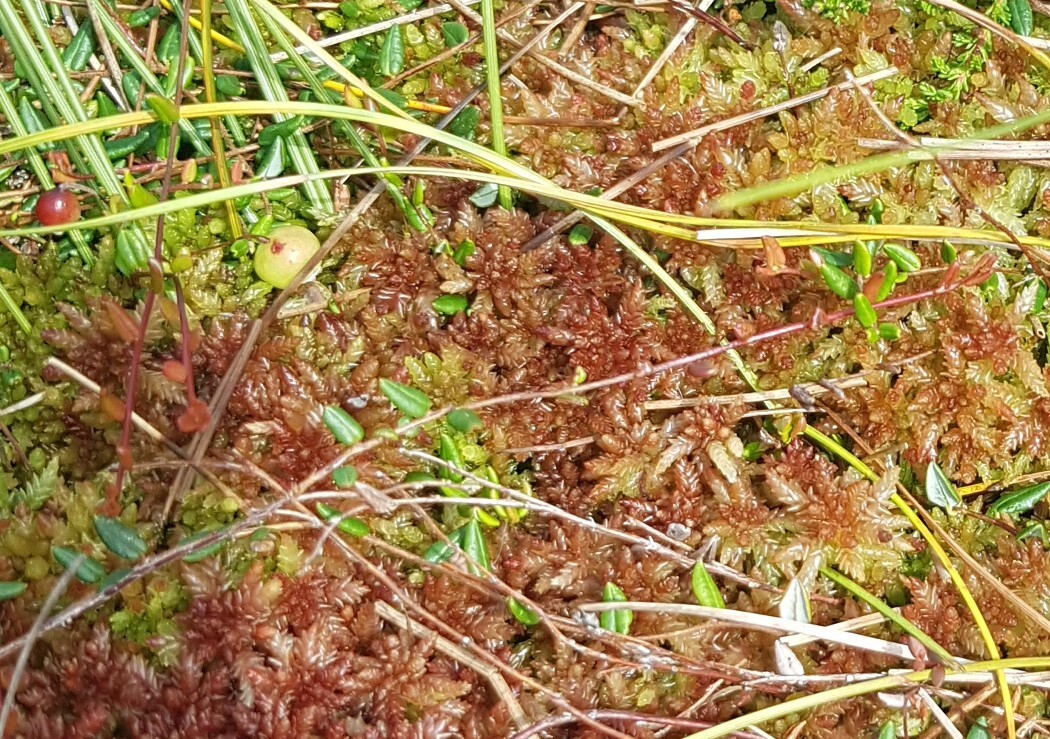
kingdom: Plantae
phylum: Tracheophyta
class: Magnoliopsida
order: Ericales
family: Ericaceae
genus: Vaccinium
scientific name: Vaccinium oxycoccos
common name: Cranberry
